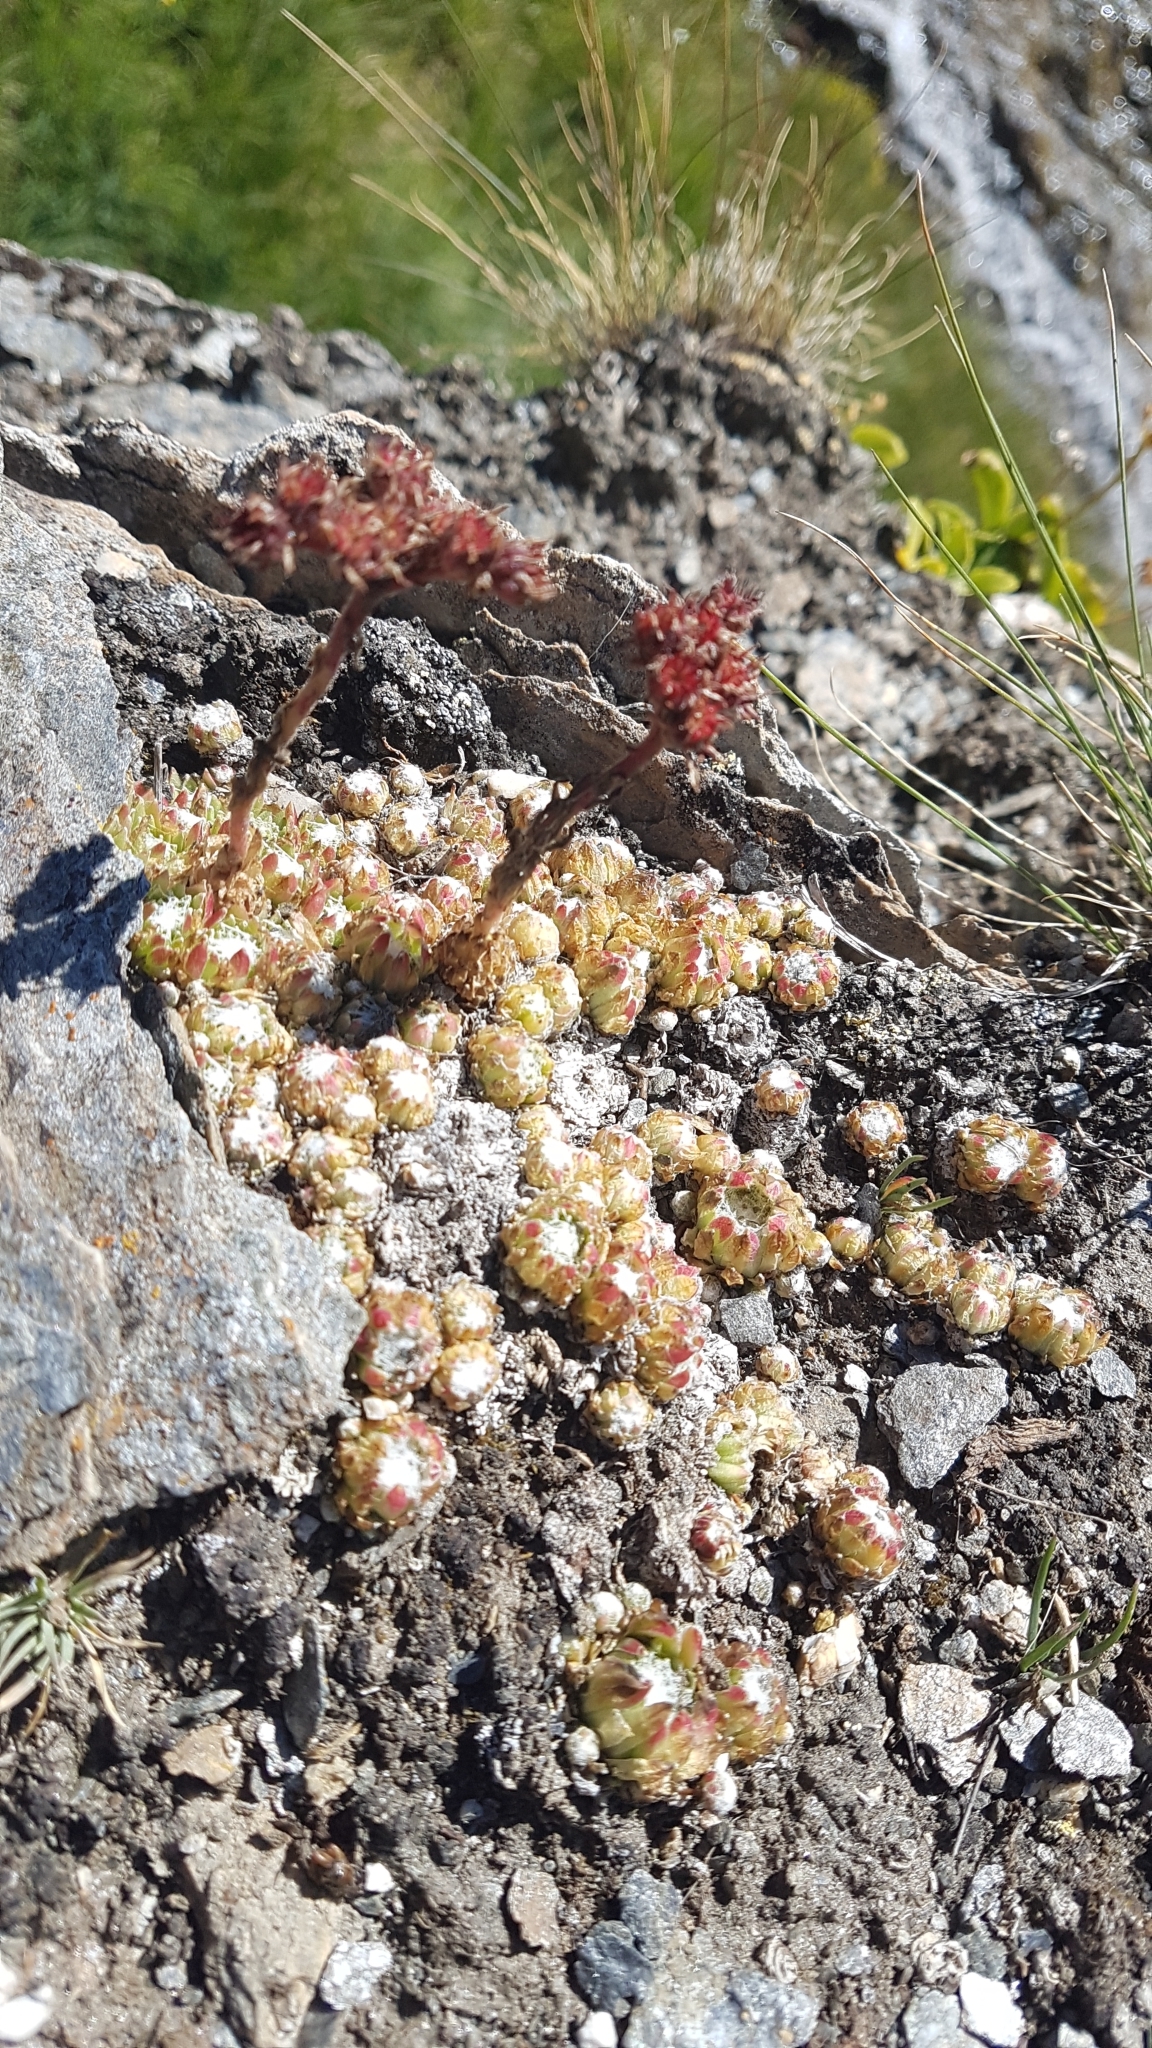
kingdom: Plantae
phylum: Tracheophyta
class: Magnoliopsida
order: Saxifragales
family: Crassulaceae
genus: Sempervivum
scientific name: Sempervivum arachnoideum
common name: Cobweb house-leek
